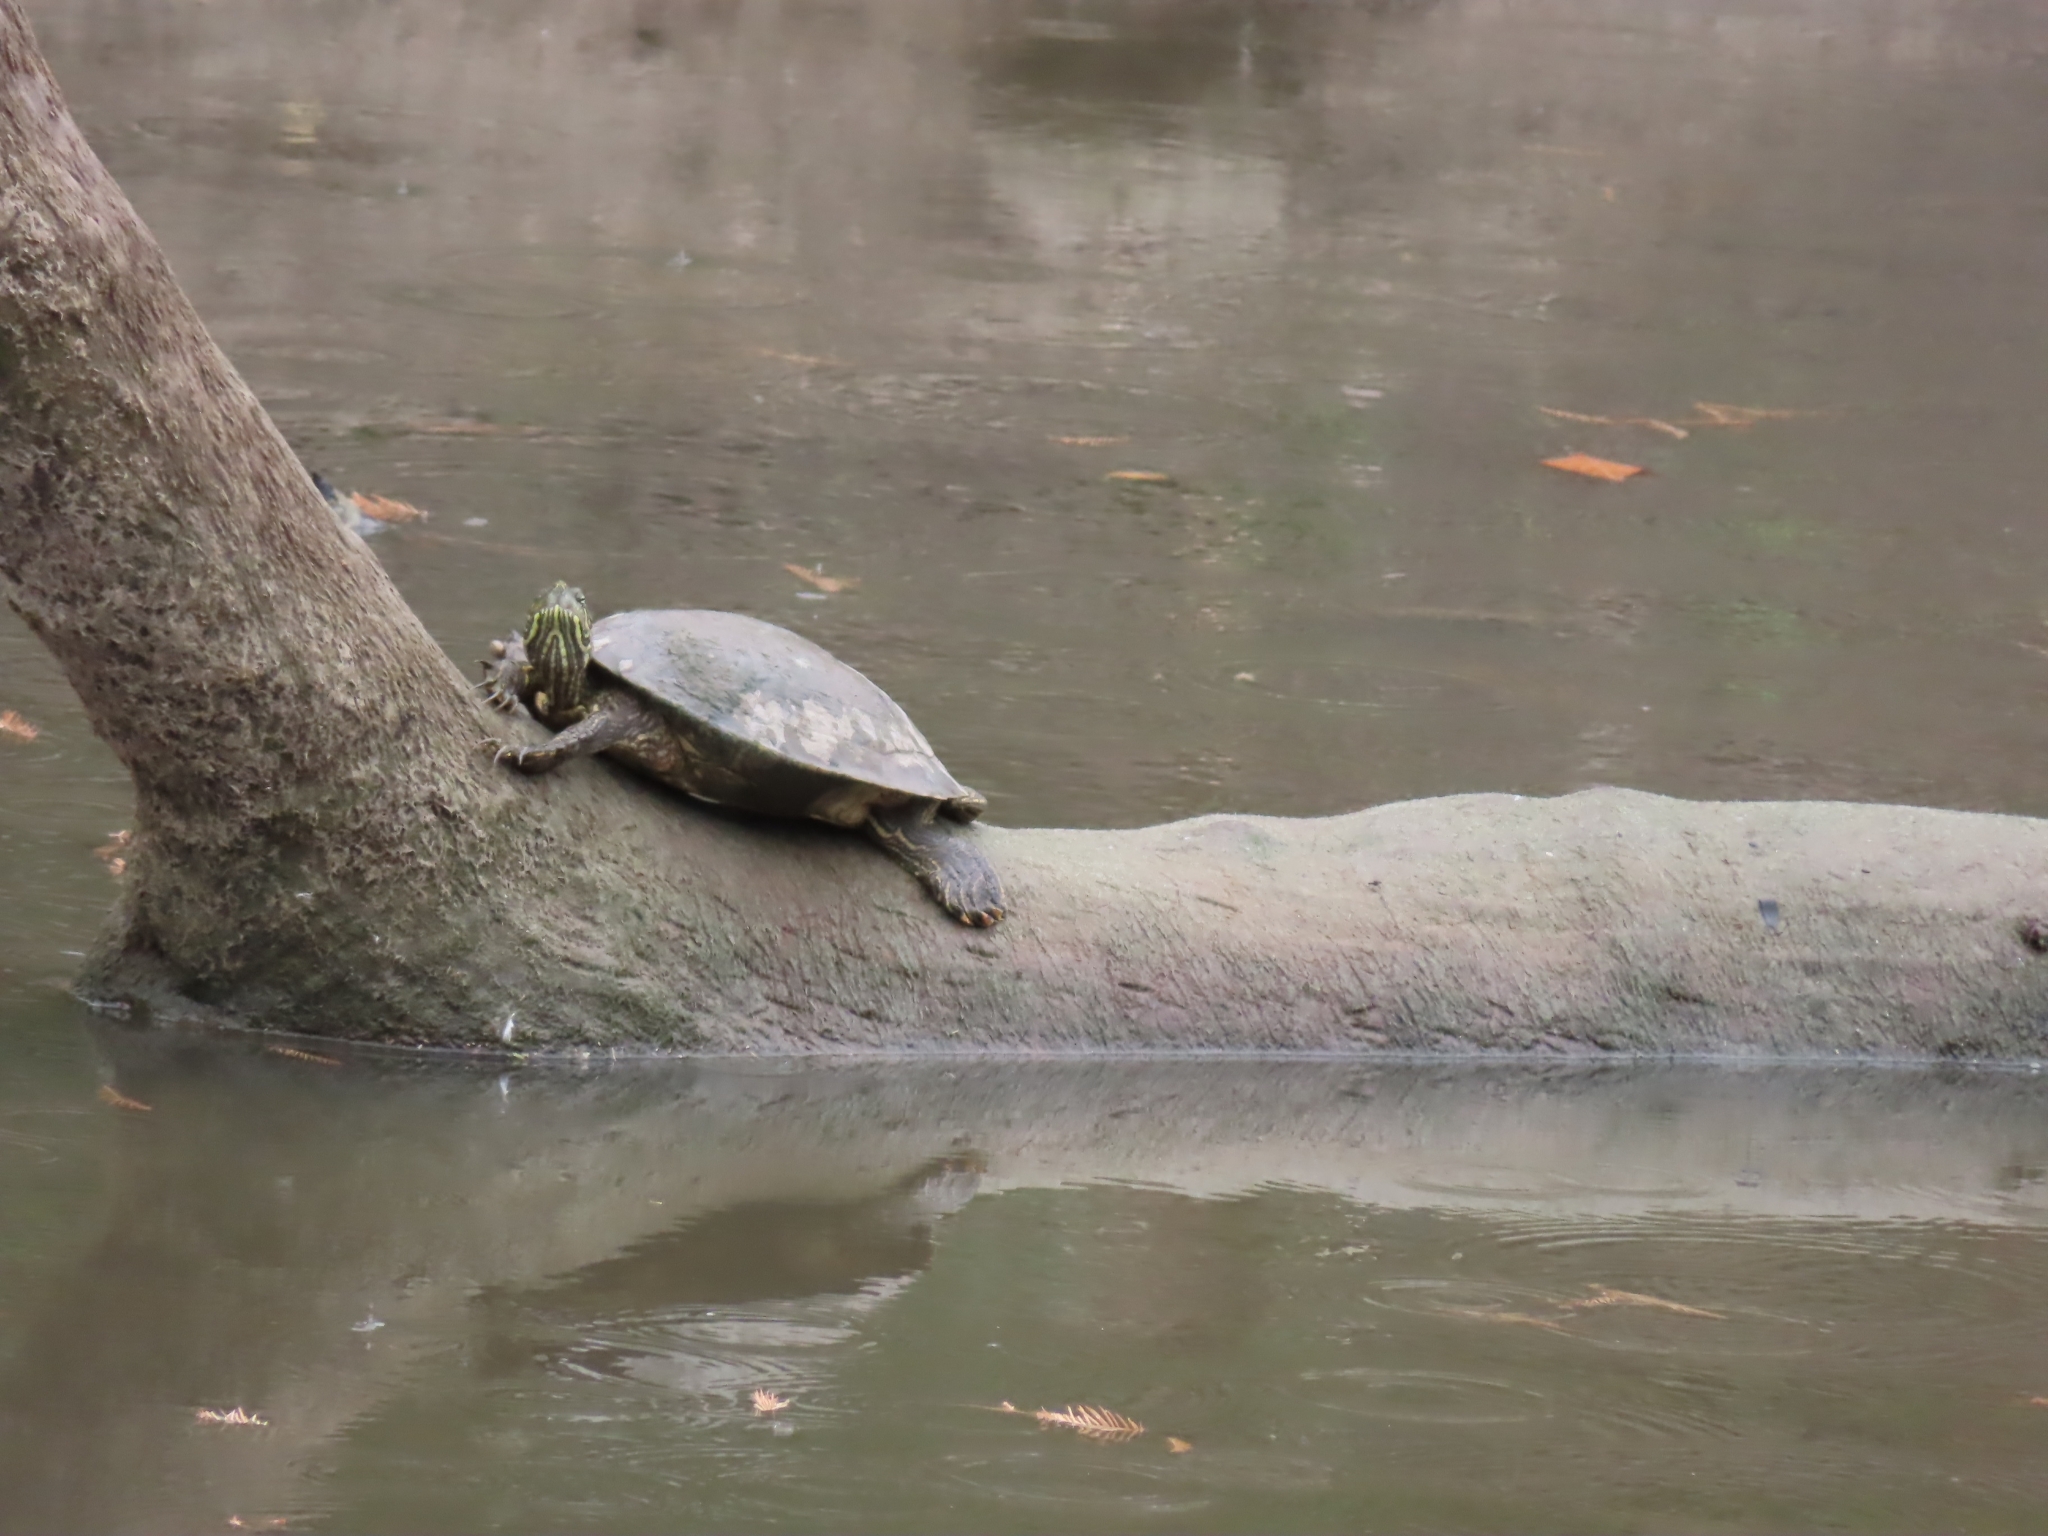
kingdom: Animalia
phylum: Chordata
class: Testudines
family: Emydidae
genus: Pseudemys
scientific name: Pseudemys texana
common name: Texas river cooter
